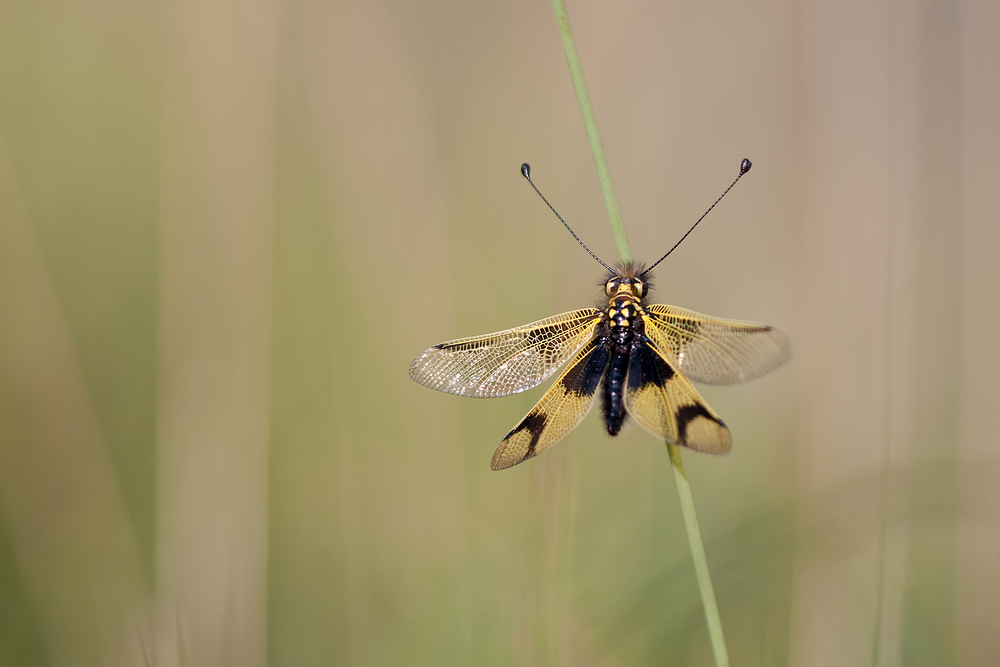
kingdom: Animalia
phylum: Arthropoda
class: Insecta
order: Neuroptera
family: Ascalaphidae
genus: Libelloides
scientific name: Libelloides longicornis
